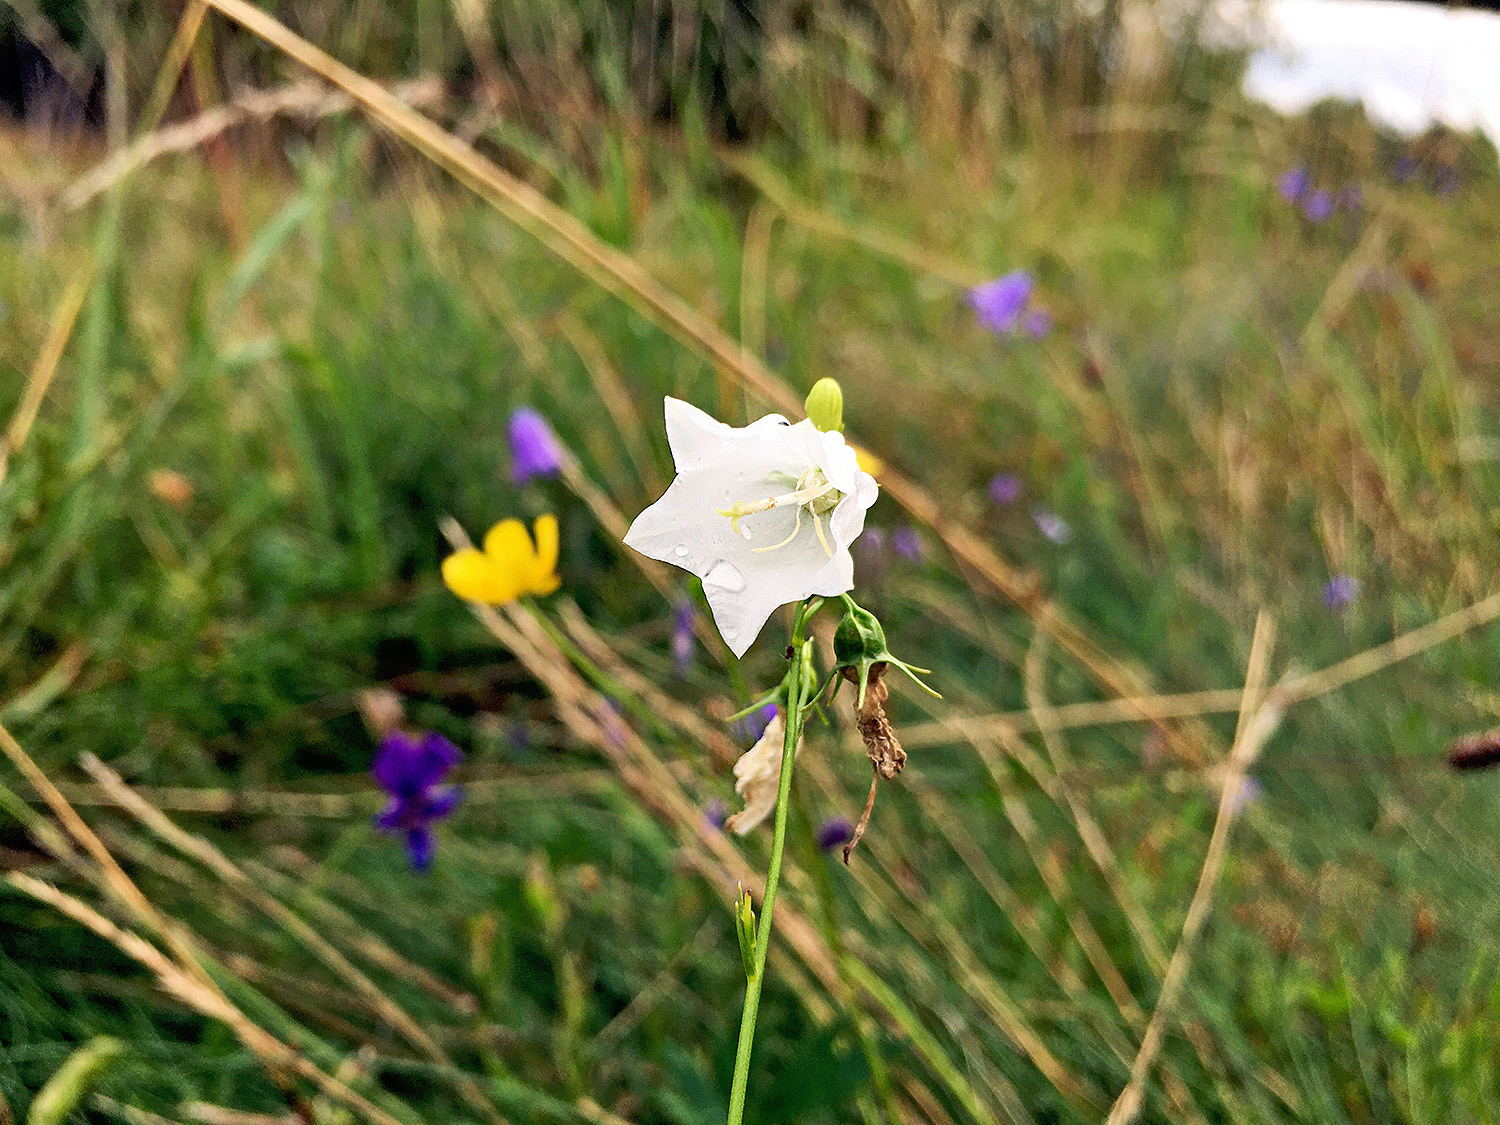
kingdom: Plantae
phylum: Tracheophyta
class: Magnoliopsida
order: Asterales
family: Campanulaceae
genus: Campanula
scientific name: Campanula rotundifolia
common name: Harebell
